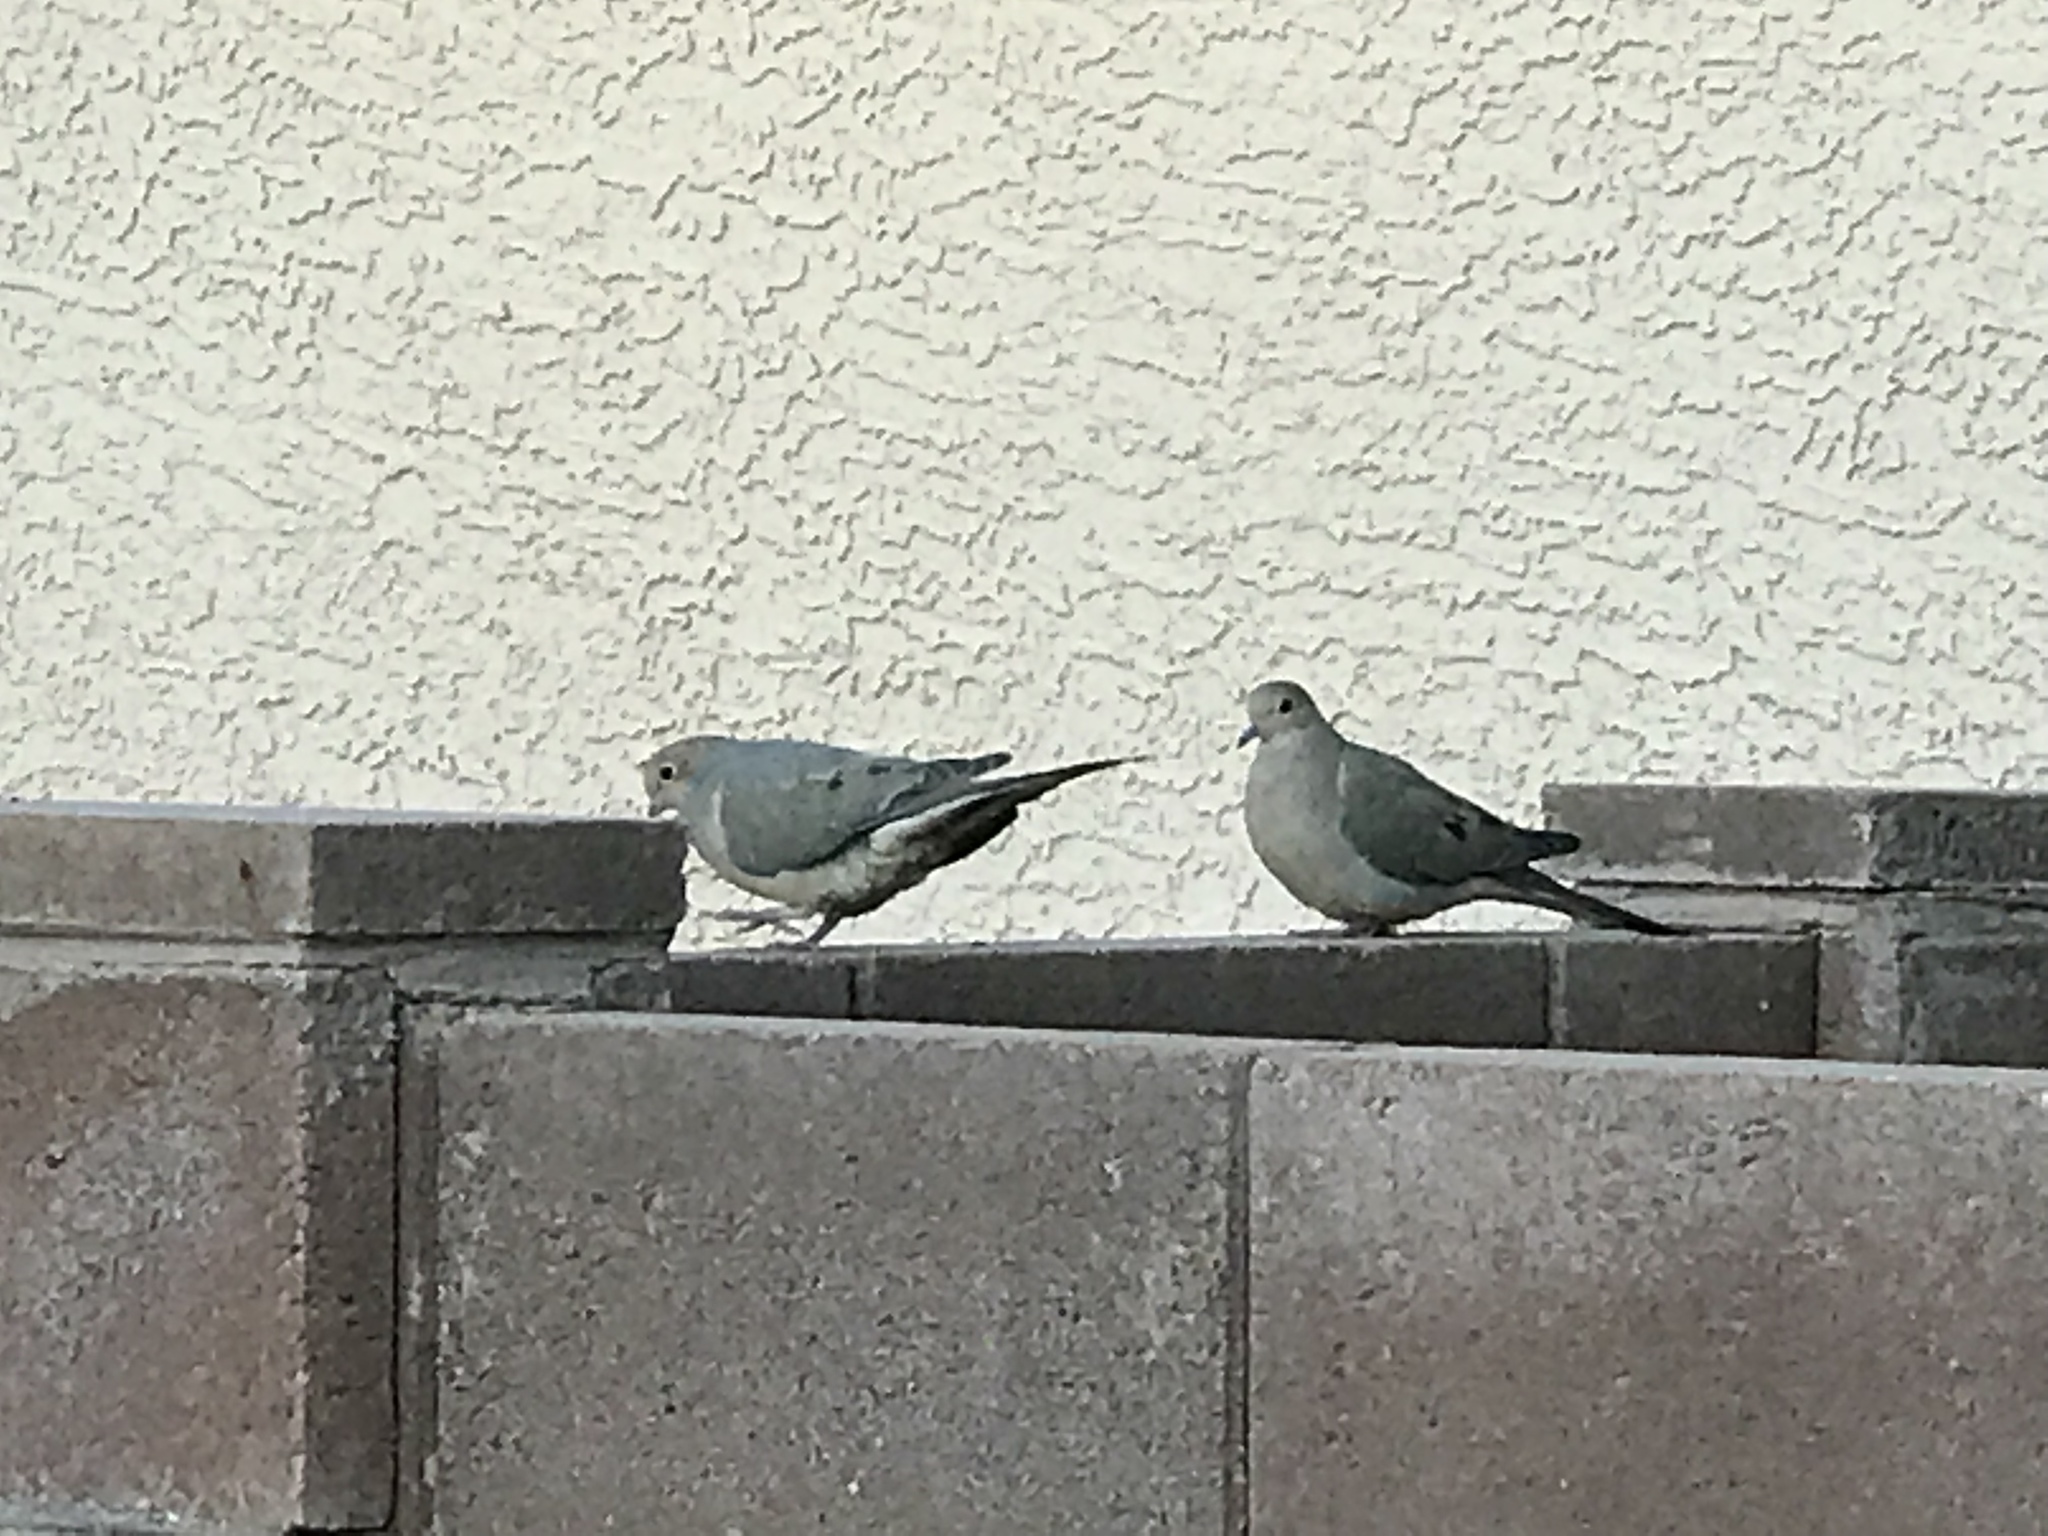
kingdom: Animalia
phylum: Chordata
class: Aves
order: Columbiformes
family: Columbidae
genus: Zenaida
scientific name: Zenaida macroura
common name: Mourning dove
